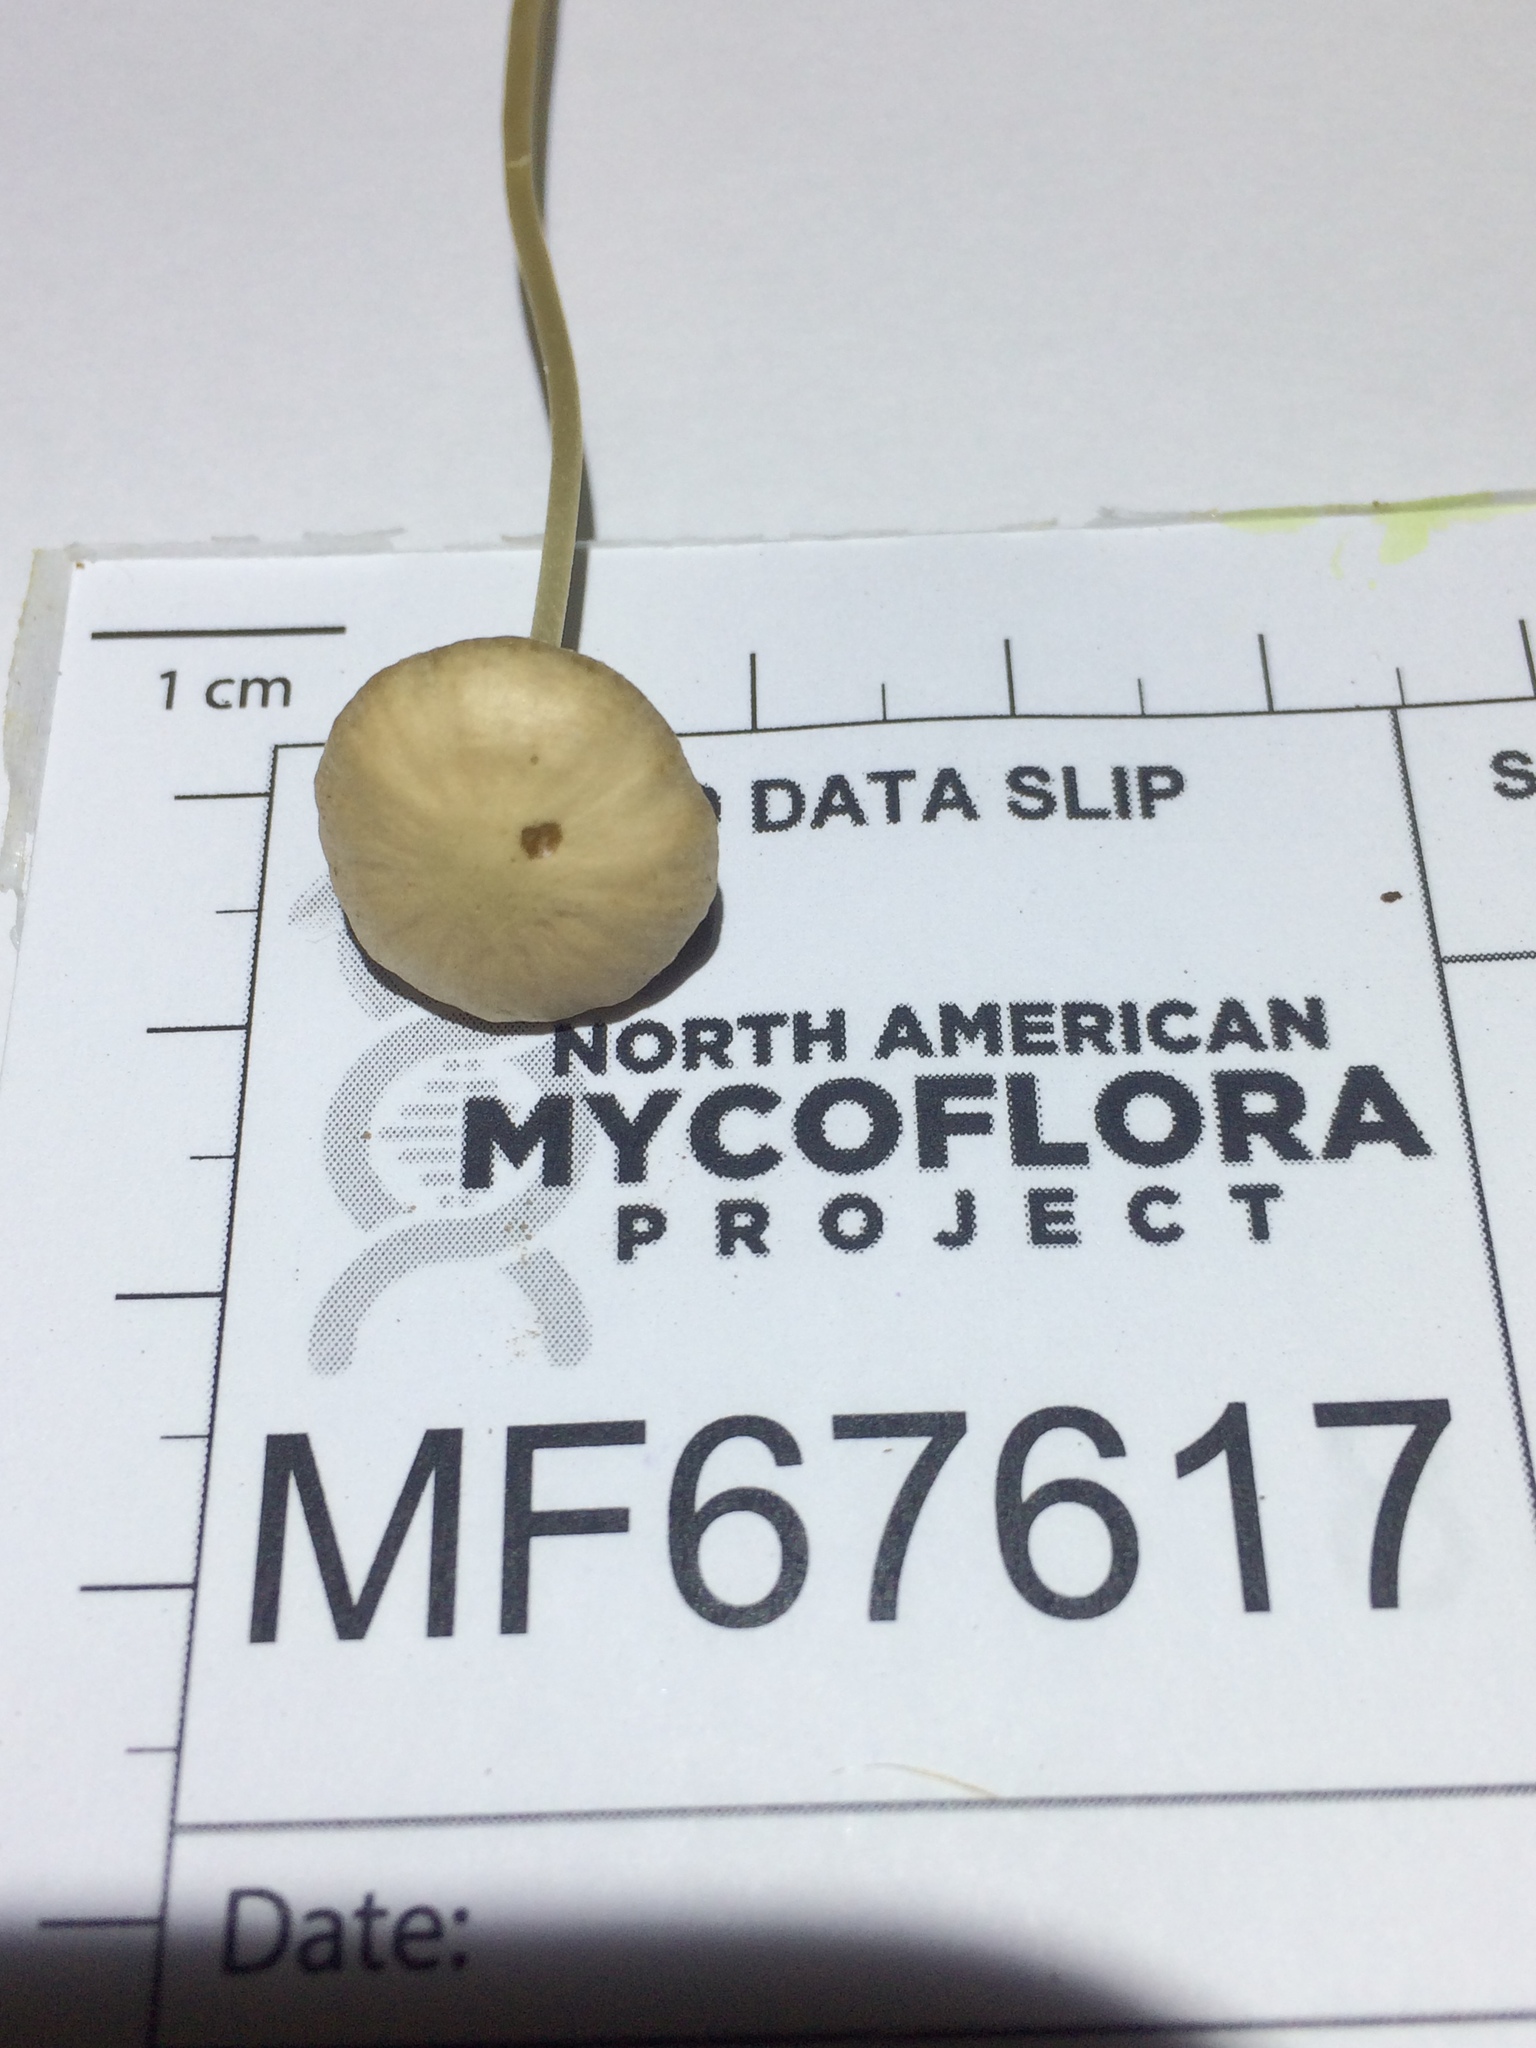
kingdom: Fungi
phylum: Basidiomycota
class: Agaricomycetes
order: Agaricales
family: Psathyrellaceae
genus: Psathyrella
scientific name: Psathyrella senex
